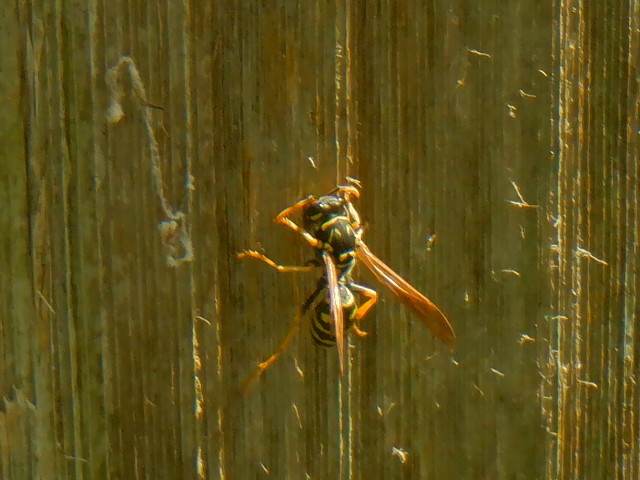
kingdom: Animalia
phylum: Arthropoda
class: Insecta
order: Hymenoptera
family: Eumenidae
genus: Polistes
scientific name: Polistes dominula
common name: Paper wasp
